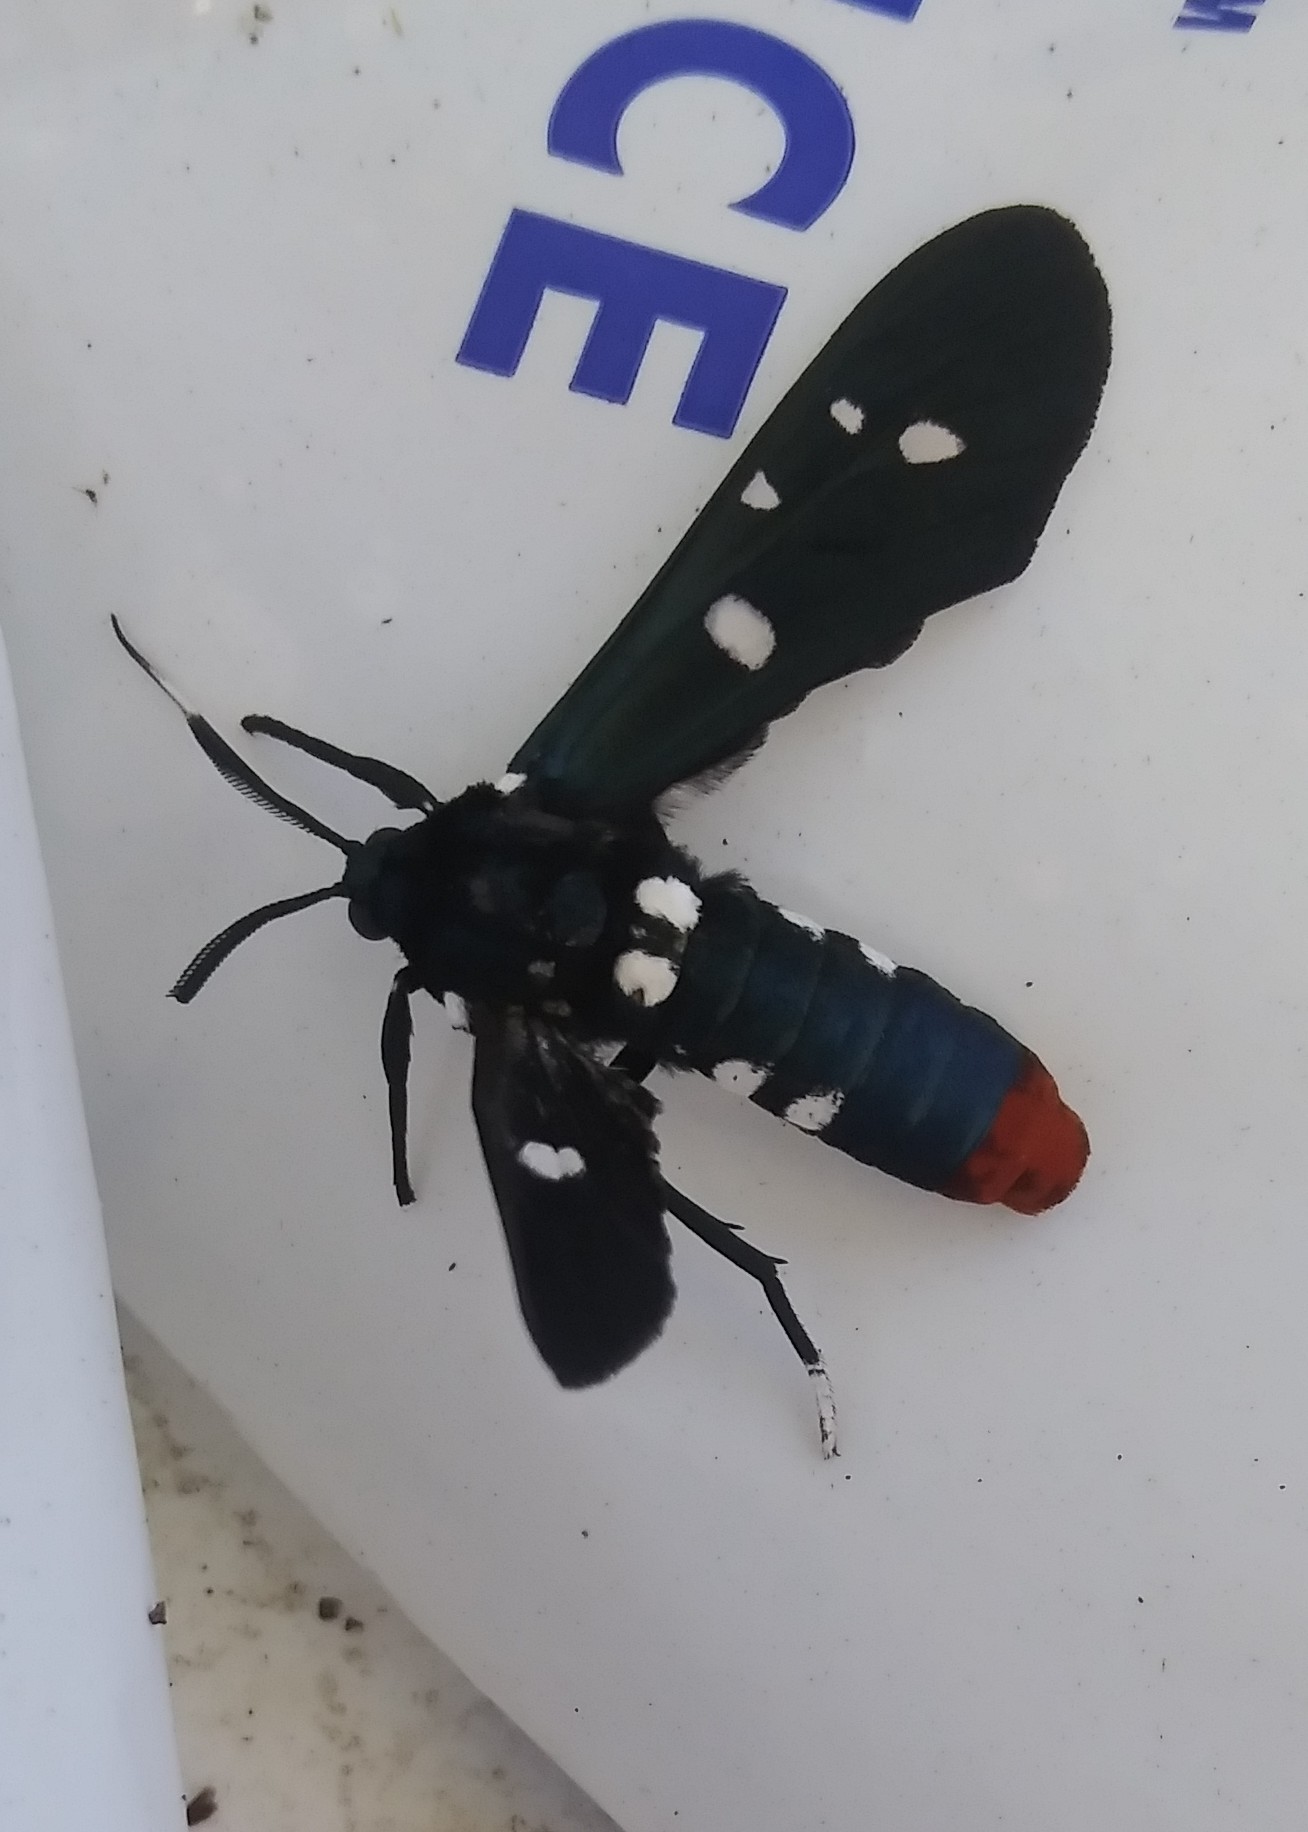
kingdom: Animalia
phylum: Arthropoda
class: Insecta
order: Lepidoptera
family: Erebidae
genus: Syntomeida
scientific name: Syntomeida epilais
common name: Polka-dot wasp moth
